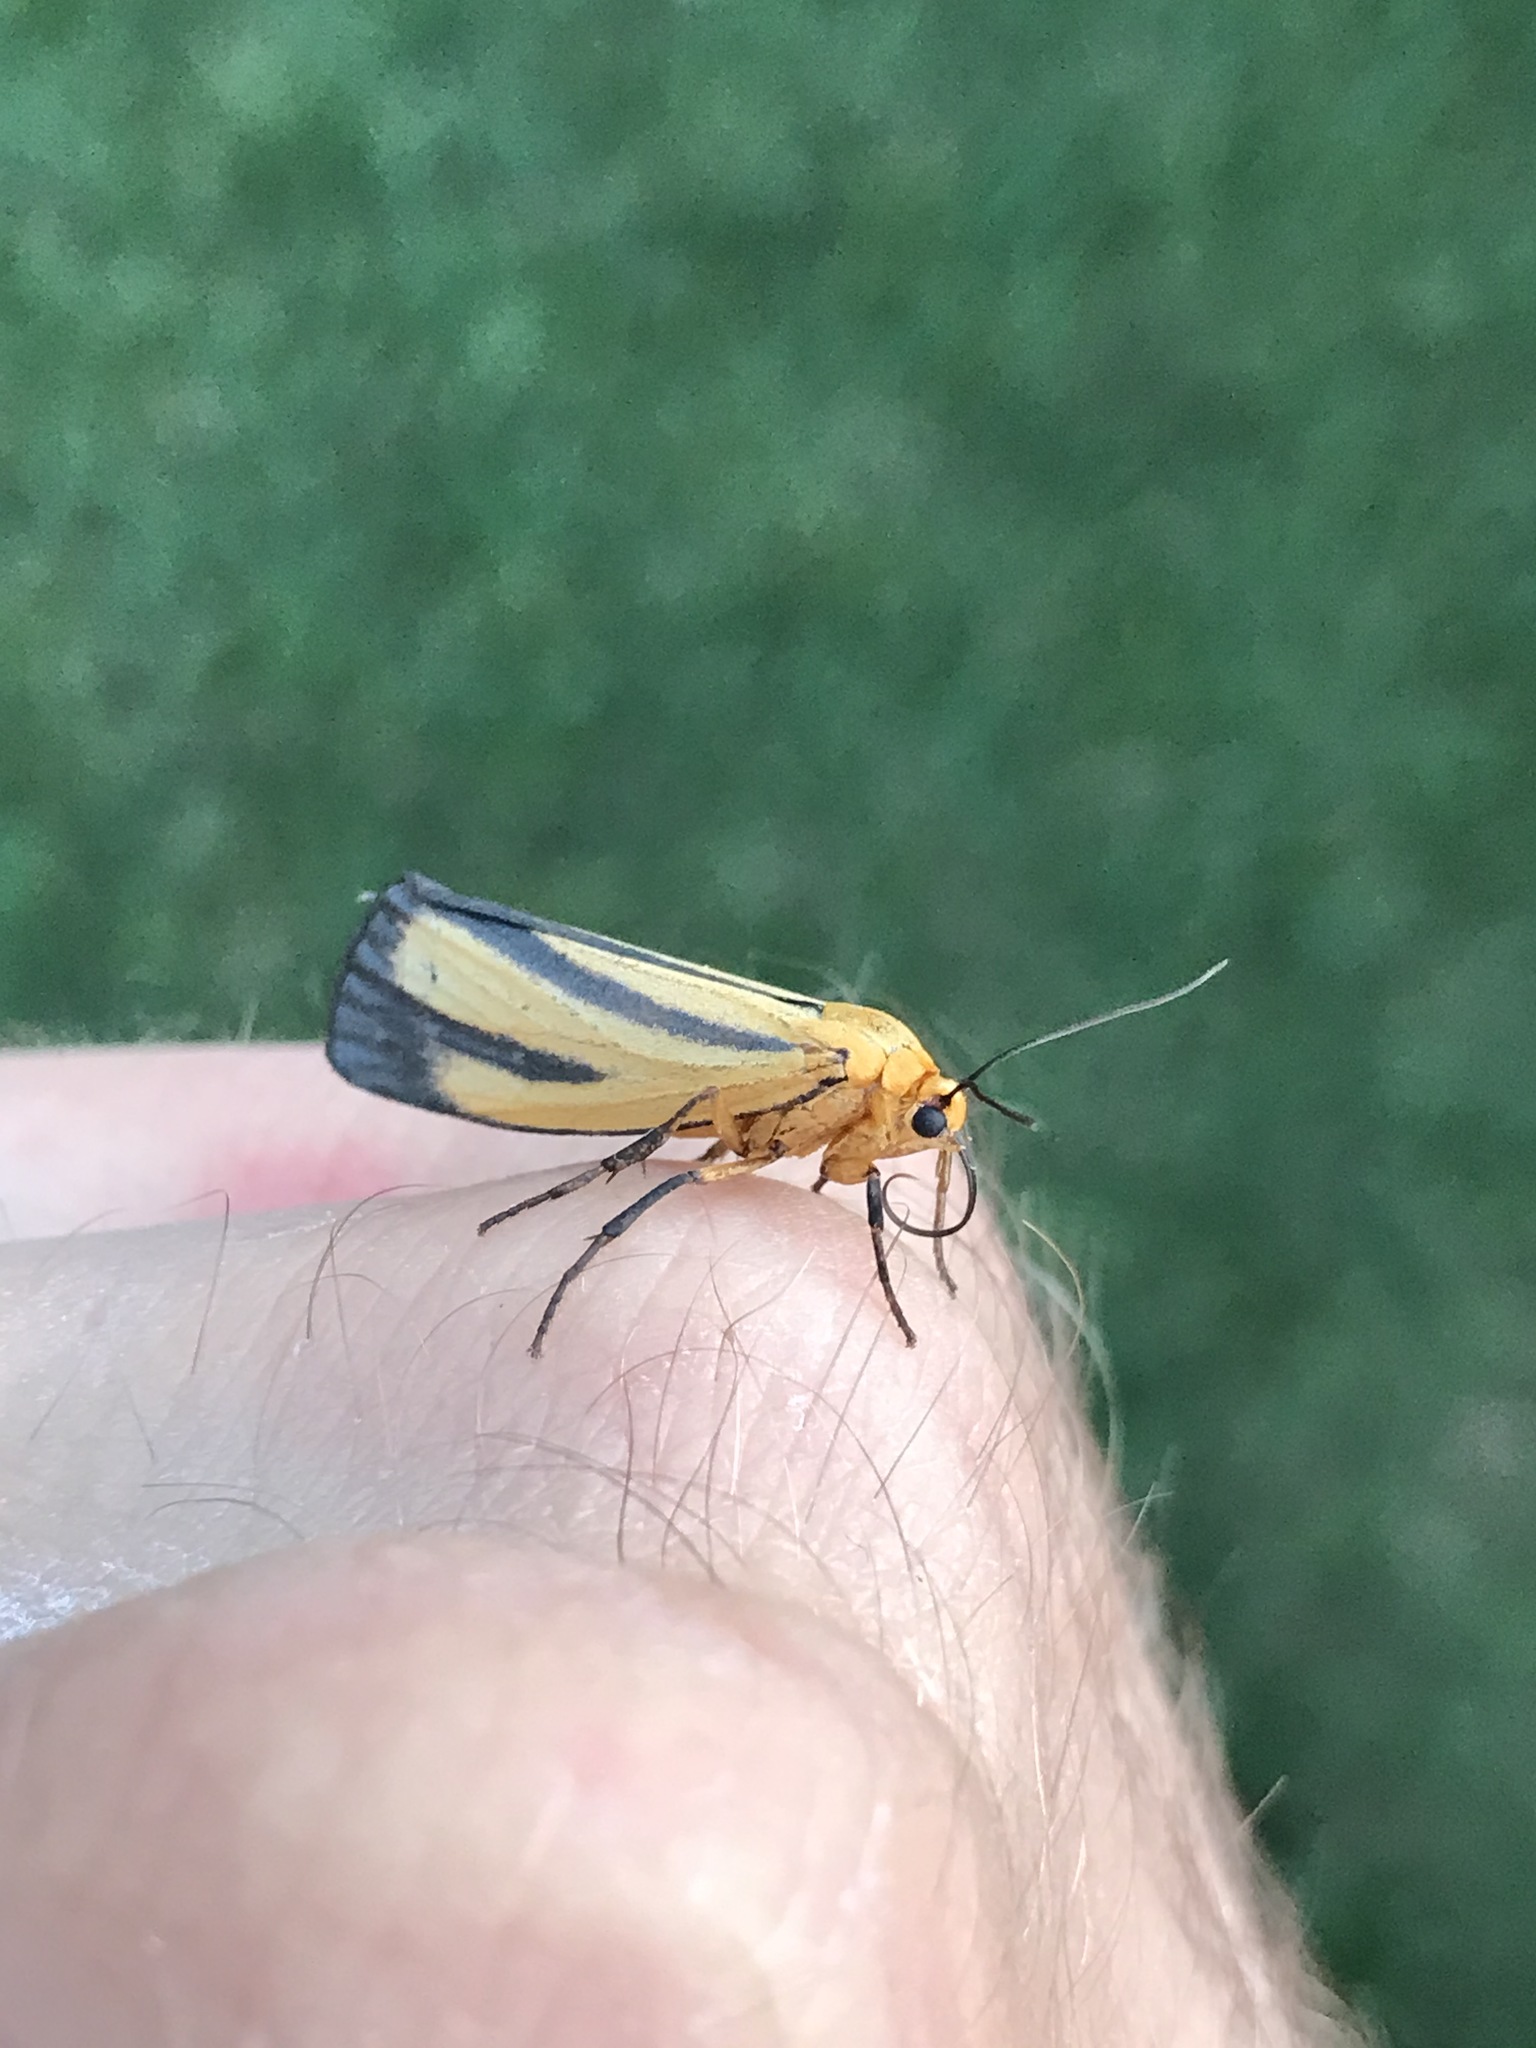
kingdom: Animalia
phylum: Arthropoda
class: Insecta
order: Lepidoptera
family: Erebidae
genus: Eurylomia
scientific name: Eurylomia cordula
